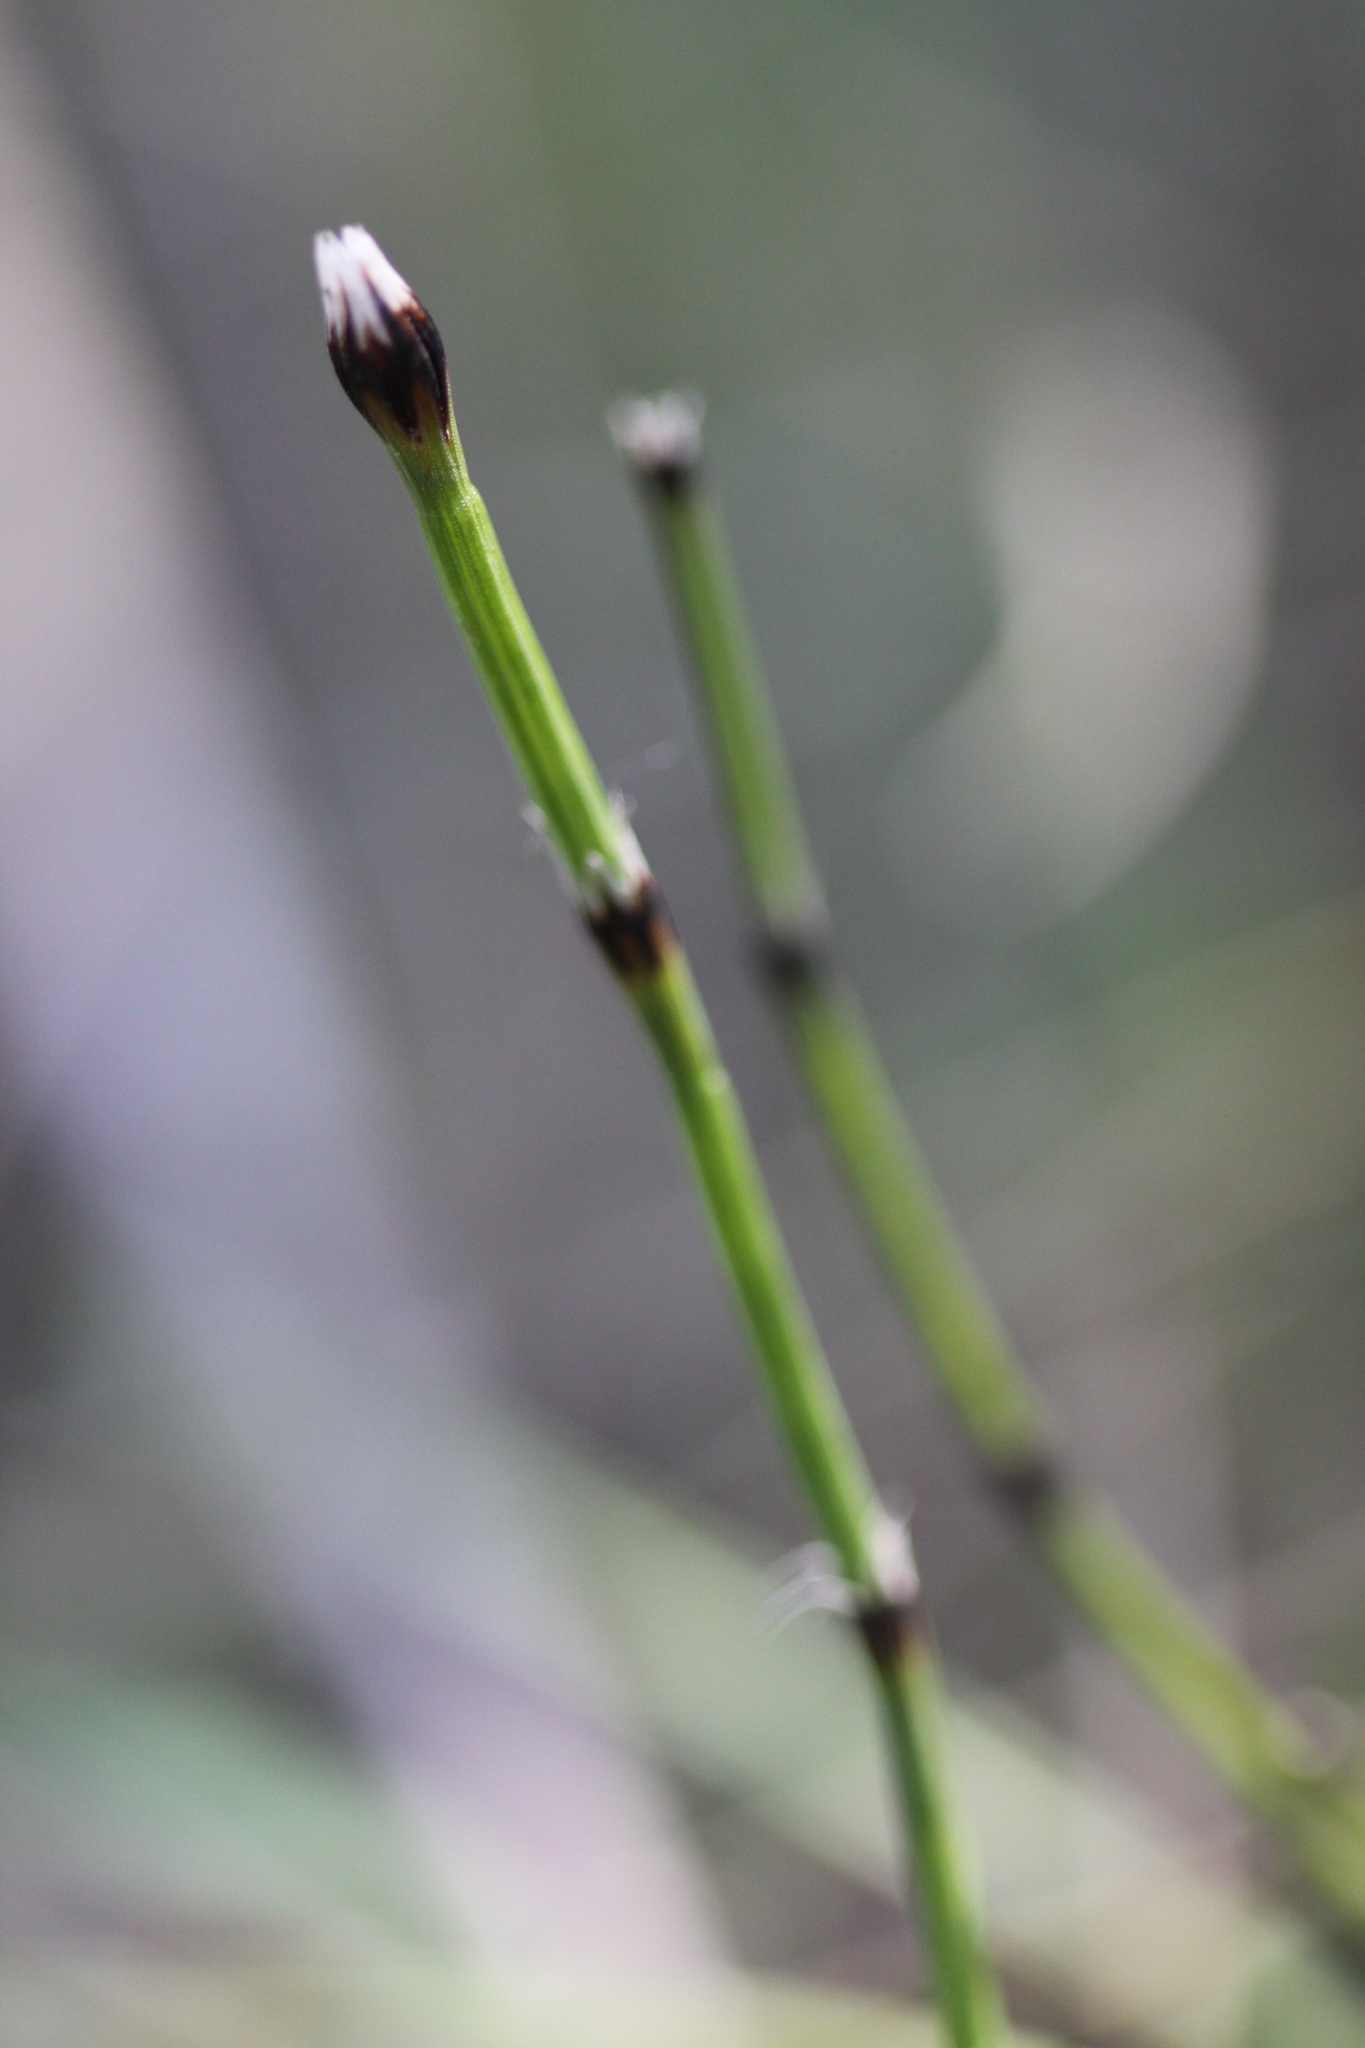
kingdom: Plantae
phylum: Tracheophyta
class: Polypodiopsida
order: Equisetales
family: Equisetaceae
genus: Equisetum
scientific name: Equisetum variegatum
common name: Variegated horsetail
